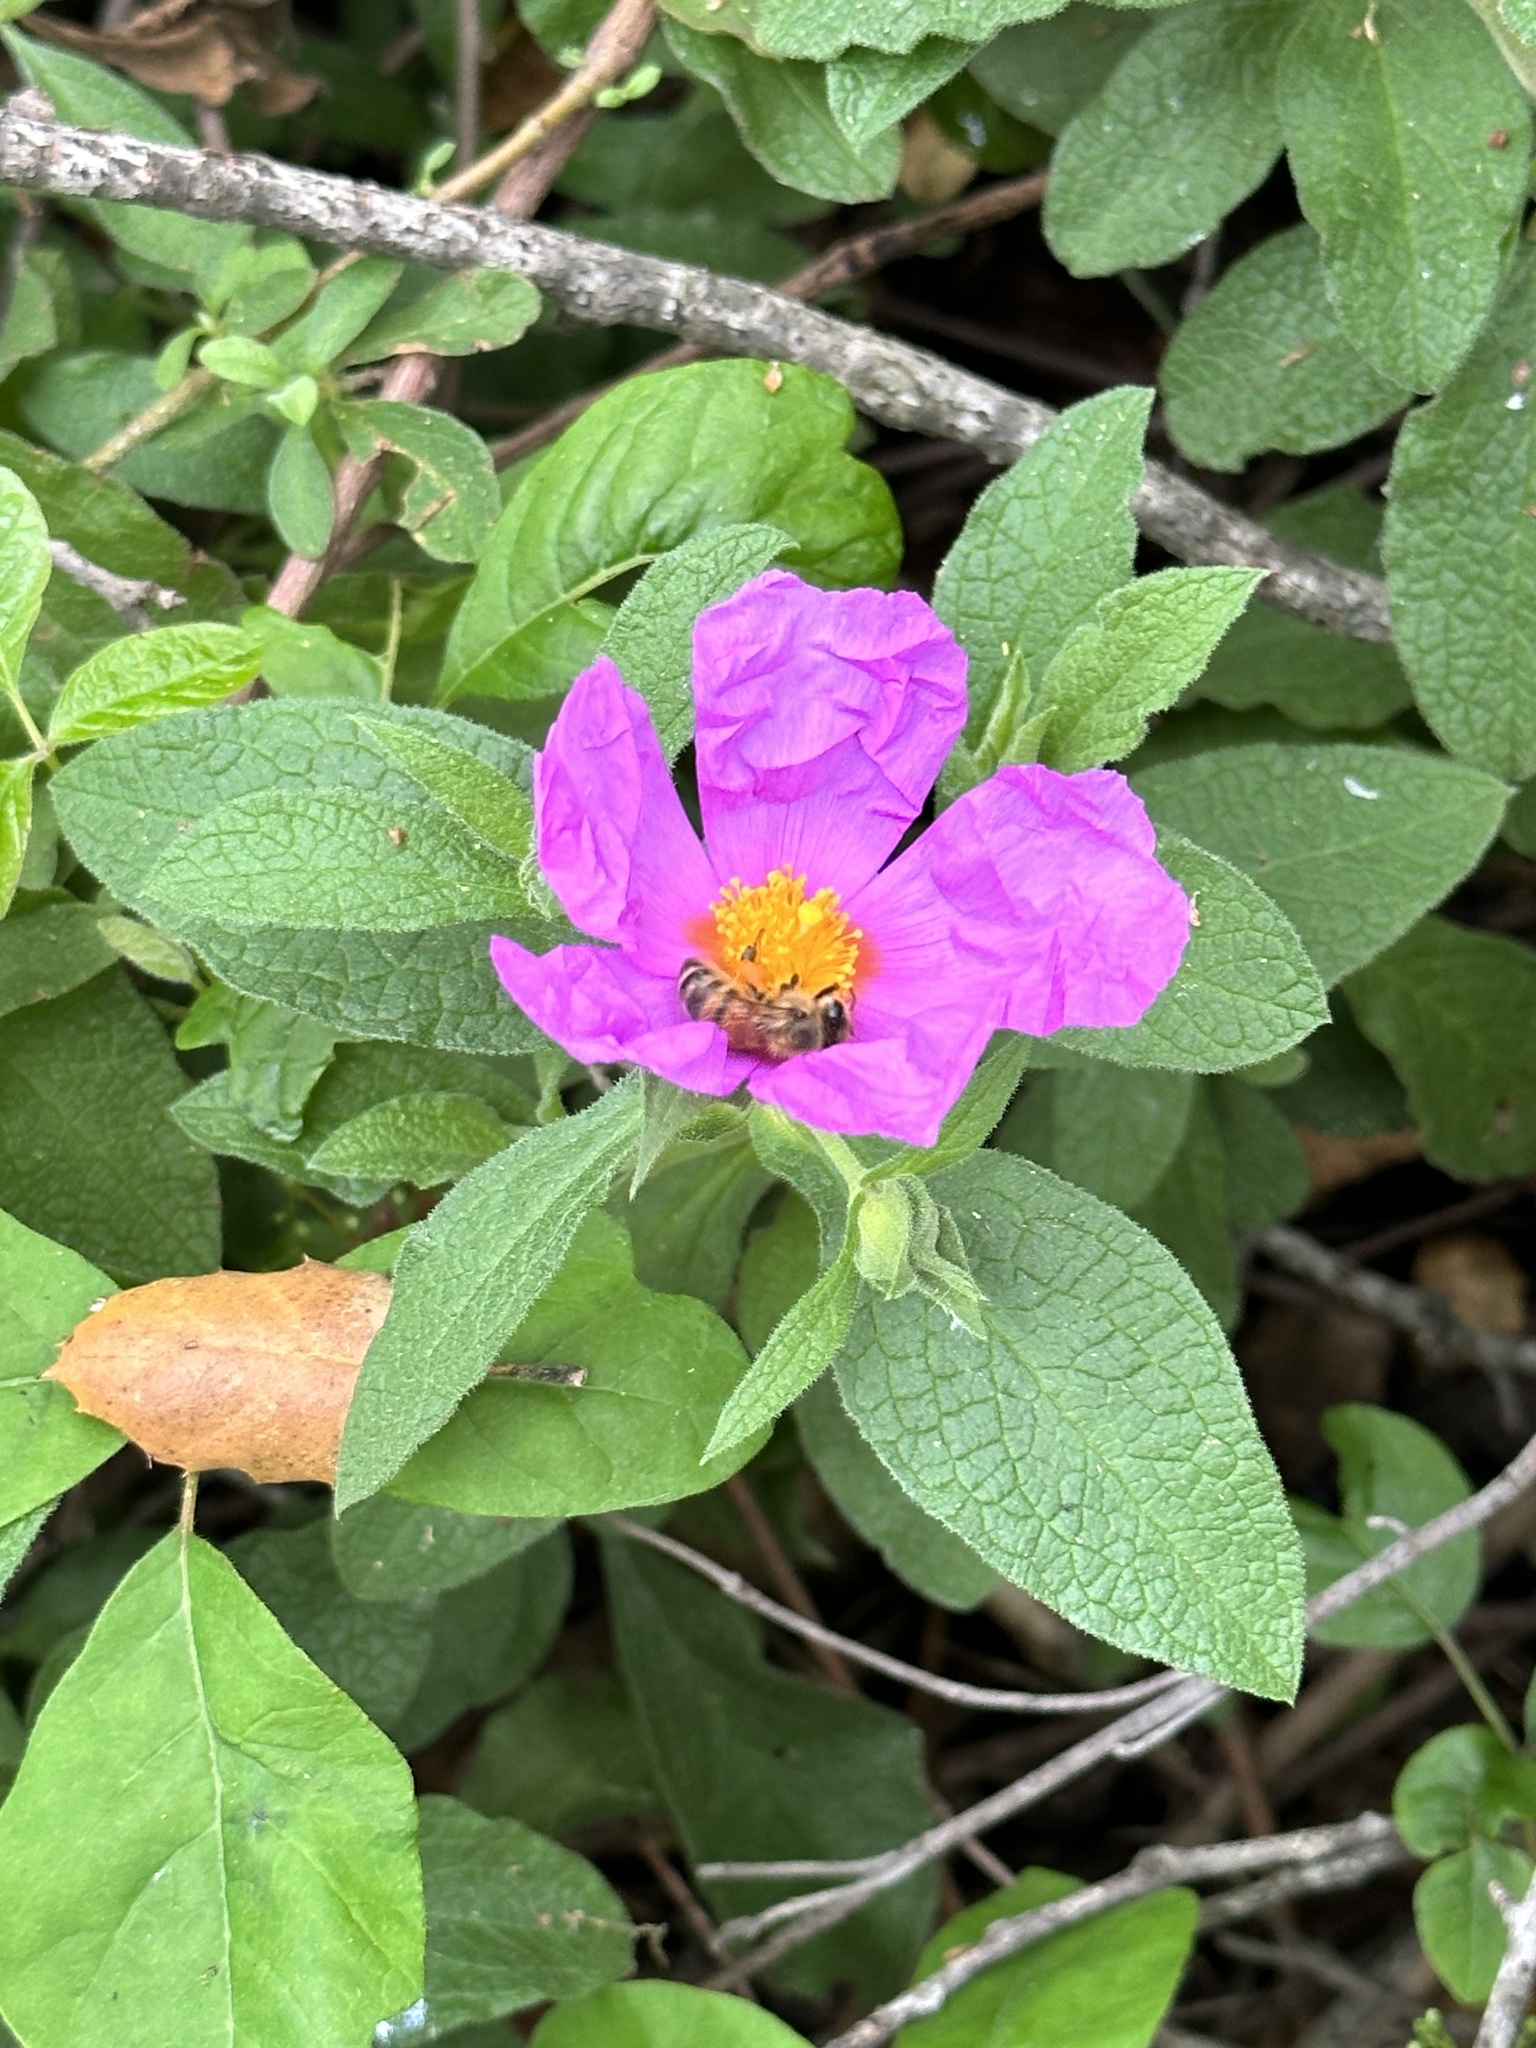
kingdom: Plantae
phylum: Tracheophyta
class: Magnoliopsida
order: Malvales
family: Cistaceae
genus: Cistus
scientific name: Cistus creticus
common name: Cretan rockrose
